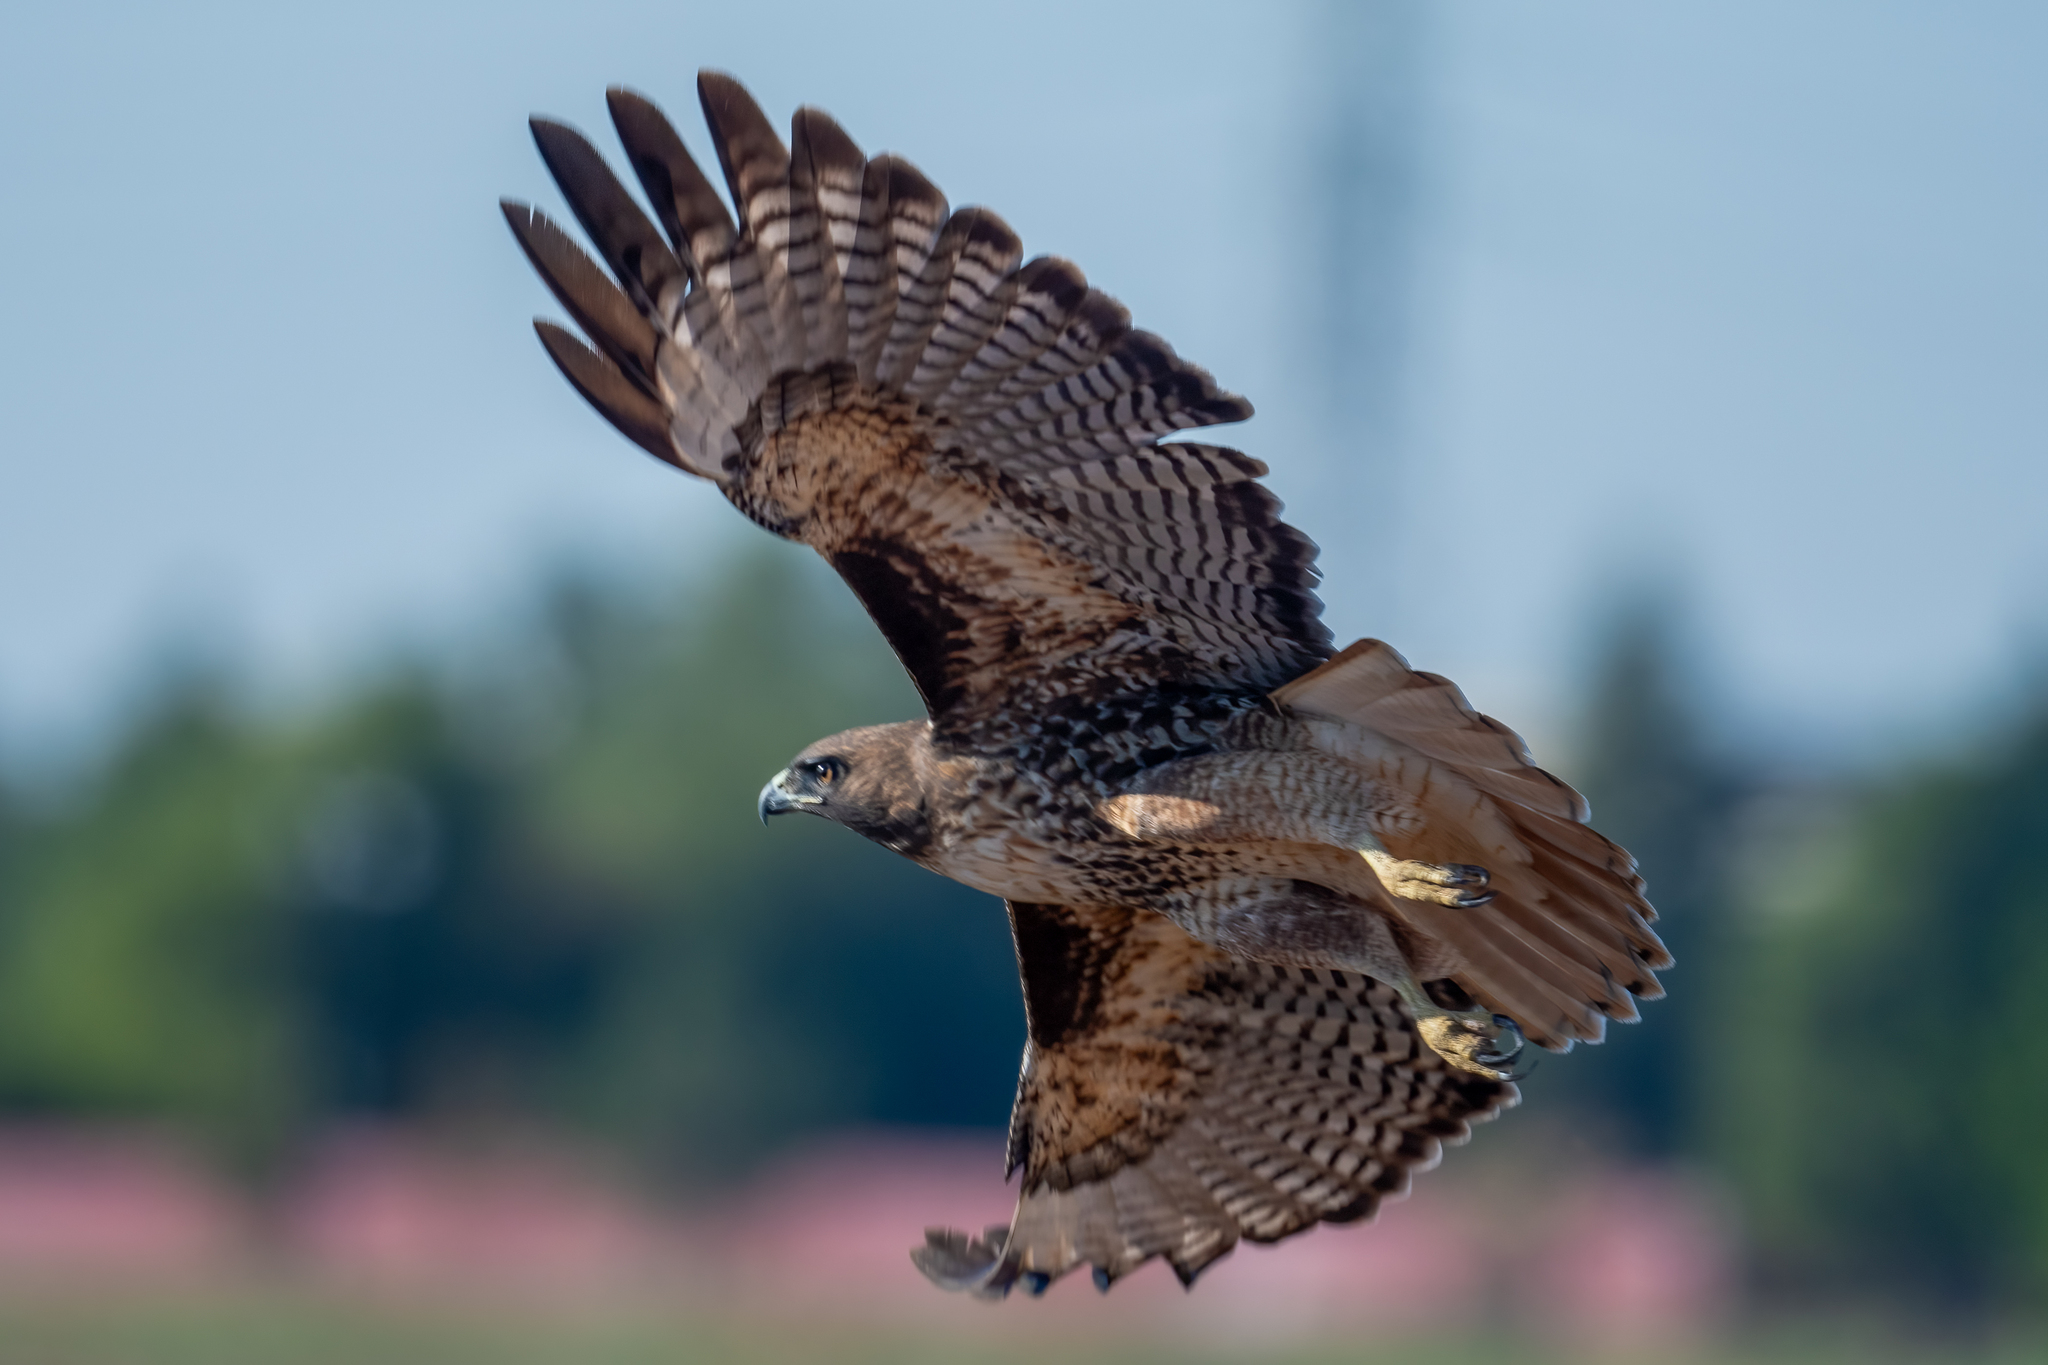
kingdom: Animalia
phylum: Chordata
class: Aves
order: Accipitriformes
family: Accipitridae
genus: Buteo
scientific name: Buteo jamaicensis
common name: Red-tailed hawk
